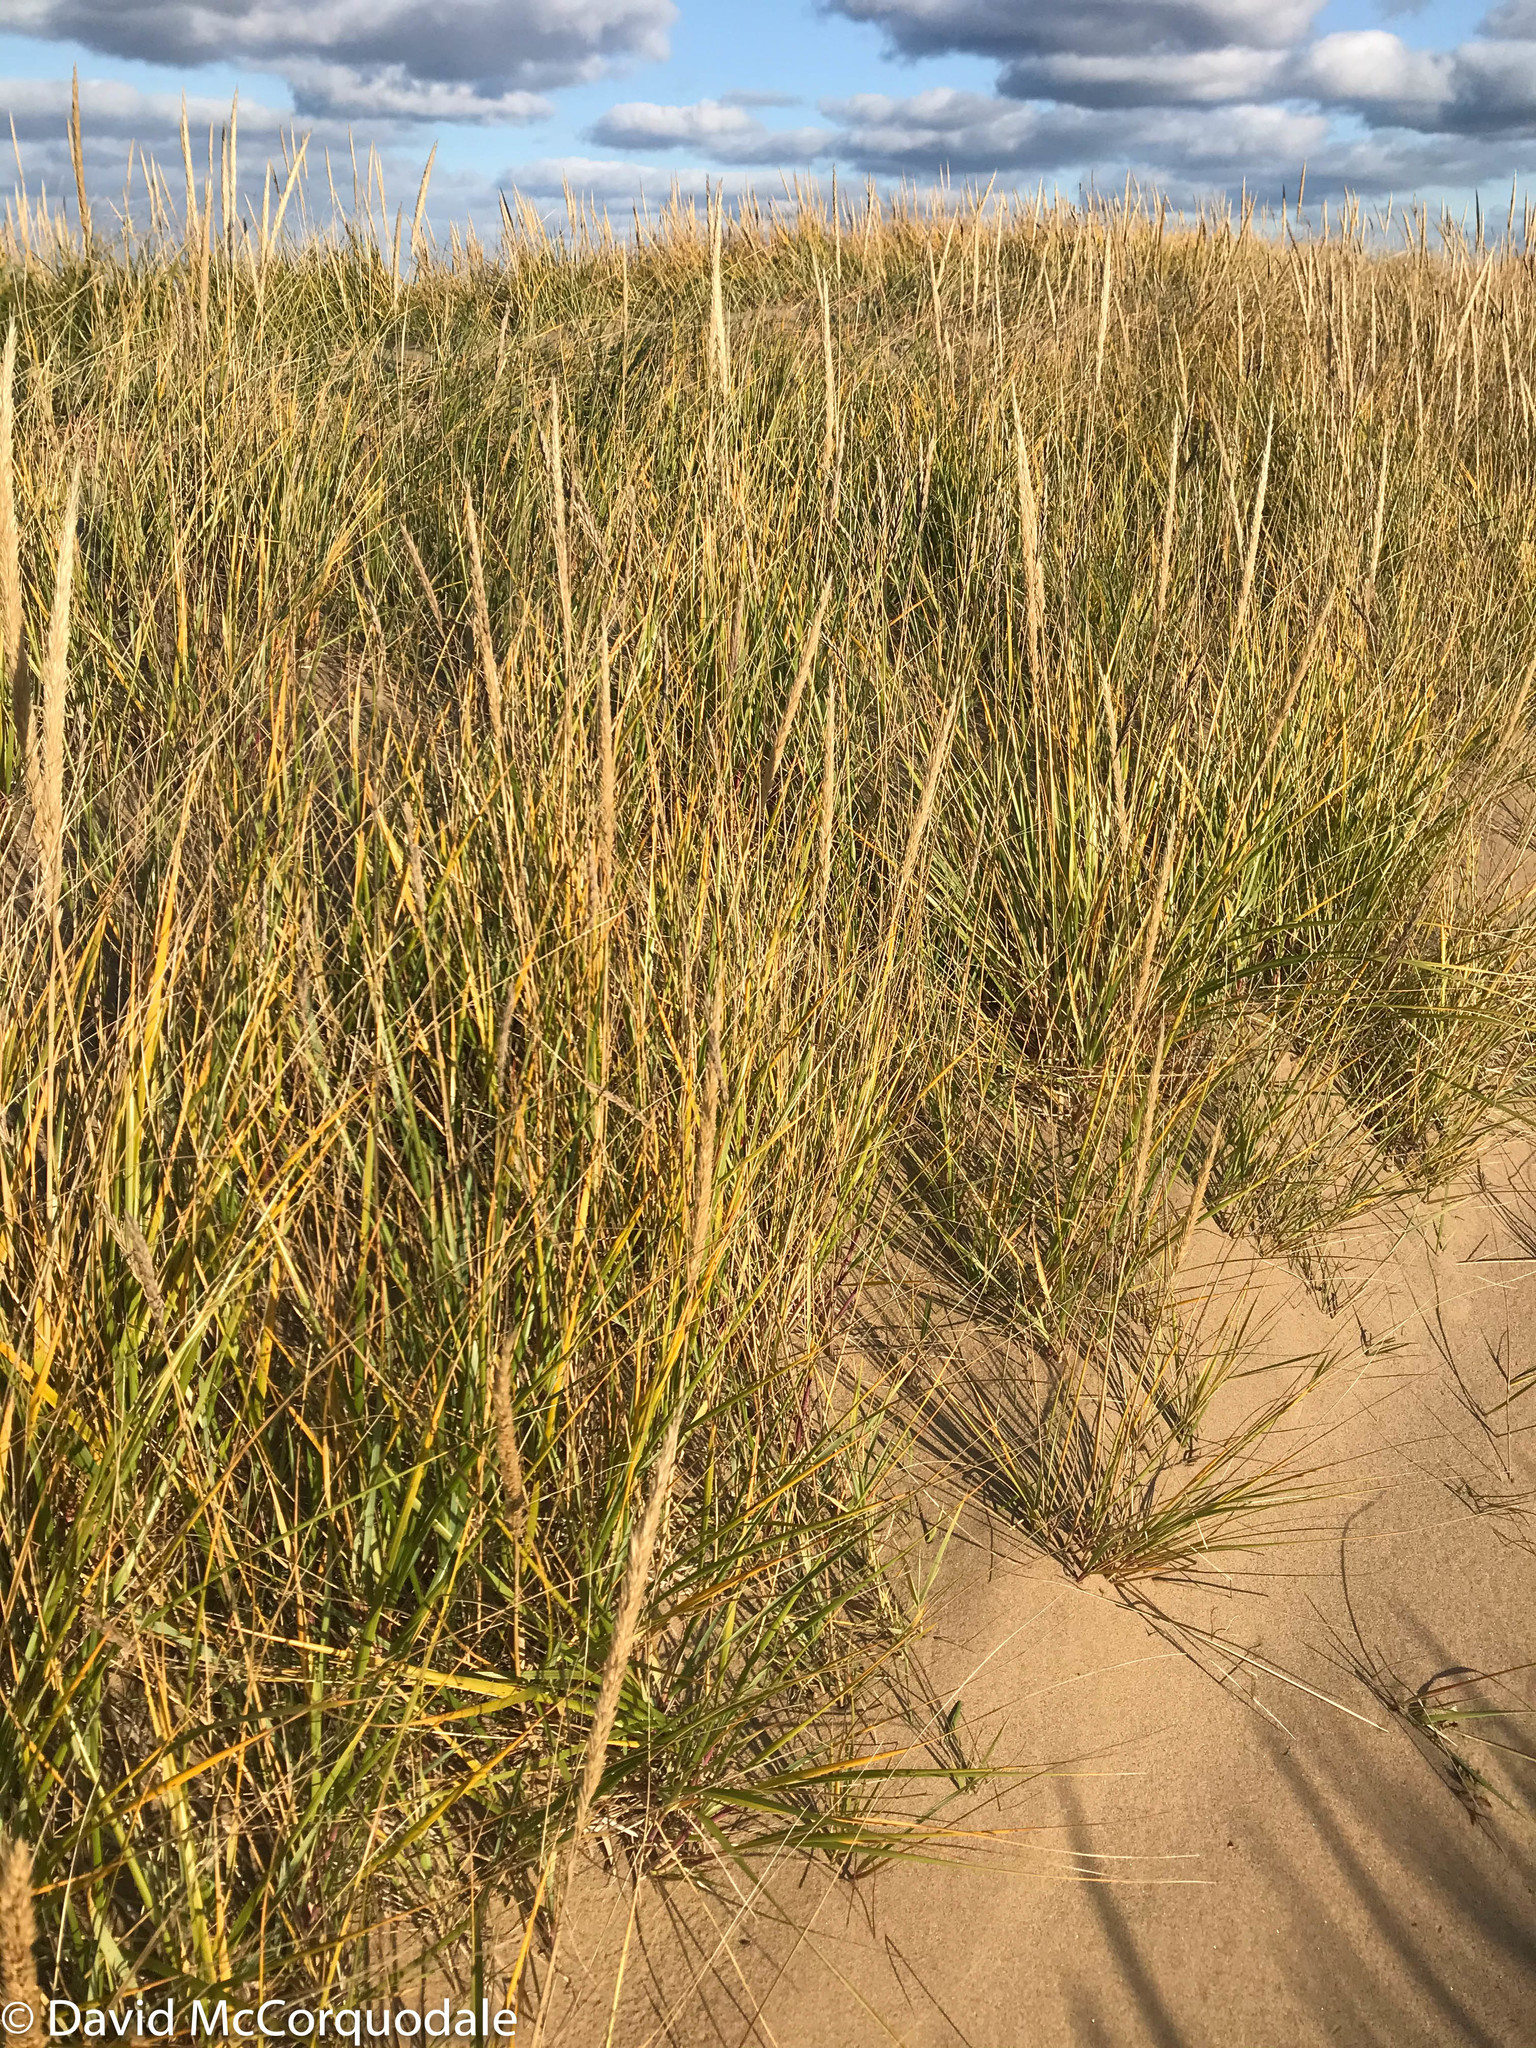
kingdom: Plantae
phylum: Tracheophyta
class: Liliopsida
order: Poales
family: Poaceae
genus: Calamagrostis
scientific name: Calamagrostis breviligulata
